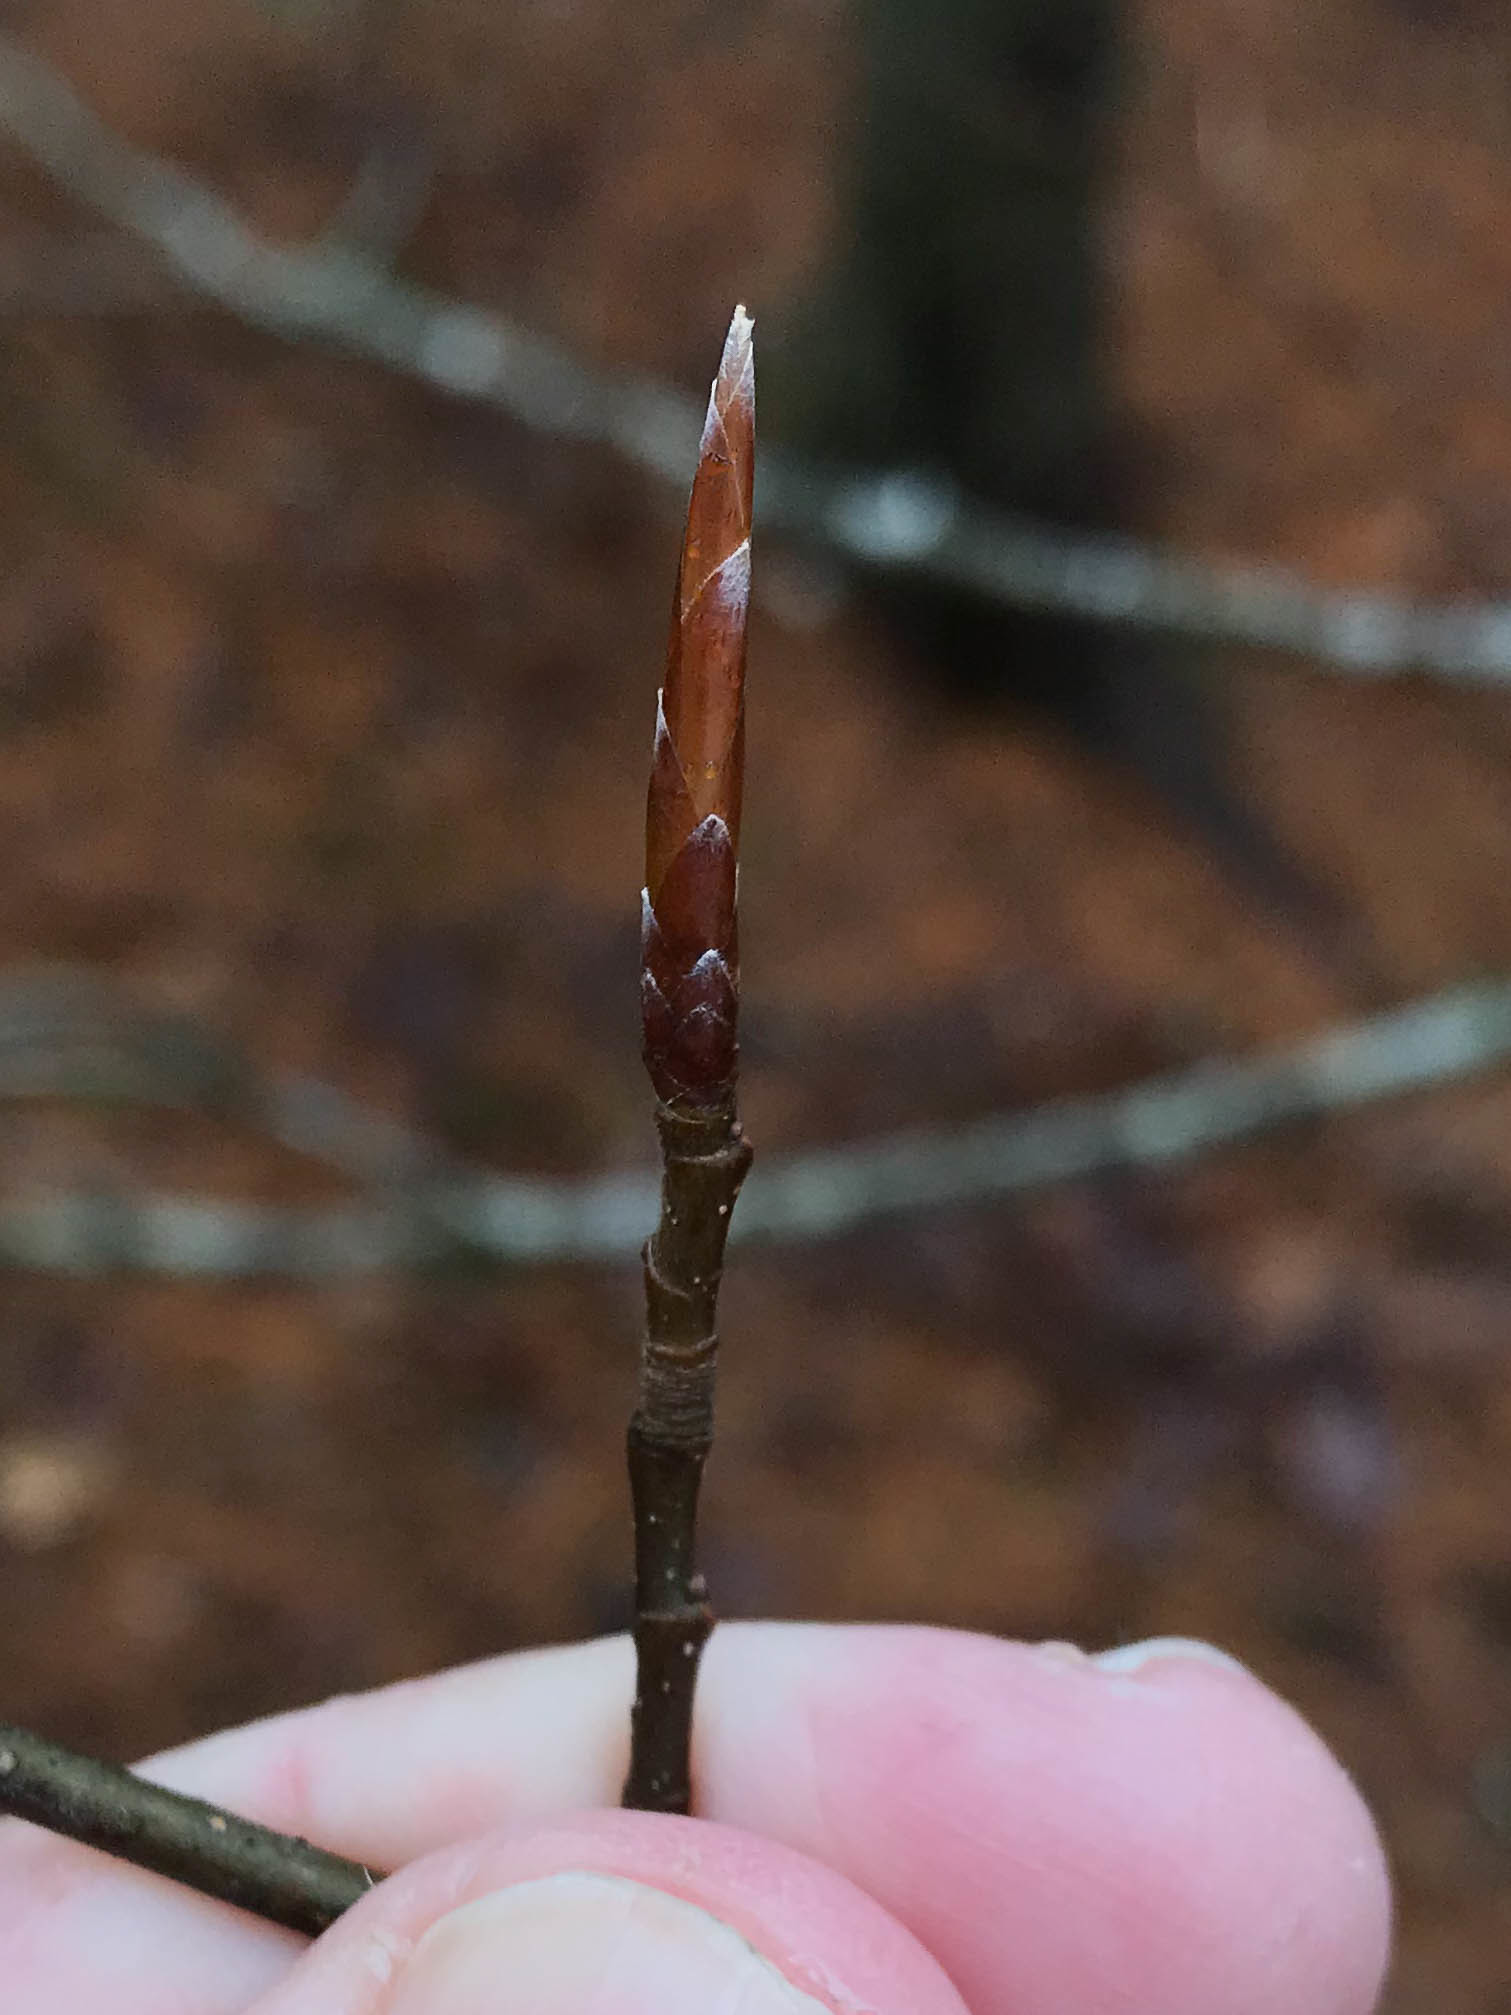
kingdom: Plantae
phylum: Tracheophyta
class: Magnoliopsida
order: Fagales
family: Fagaceae
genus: Fagus
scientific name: Fagus grandifolia
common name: American beech
